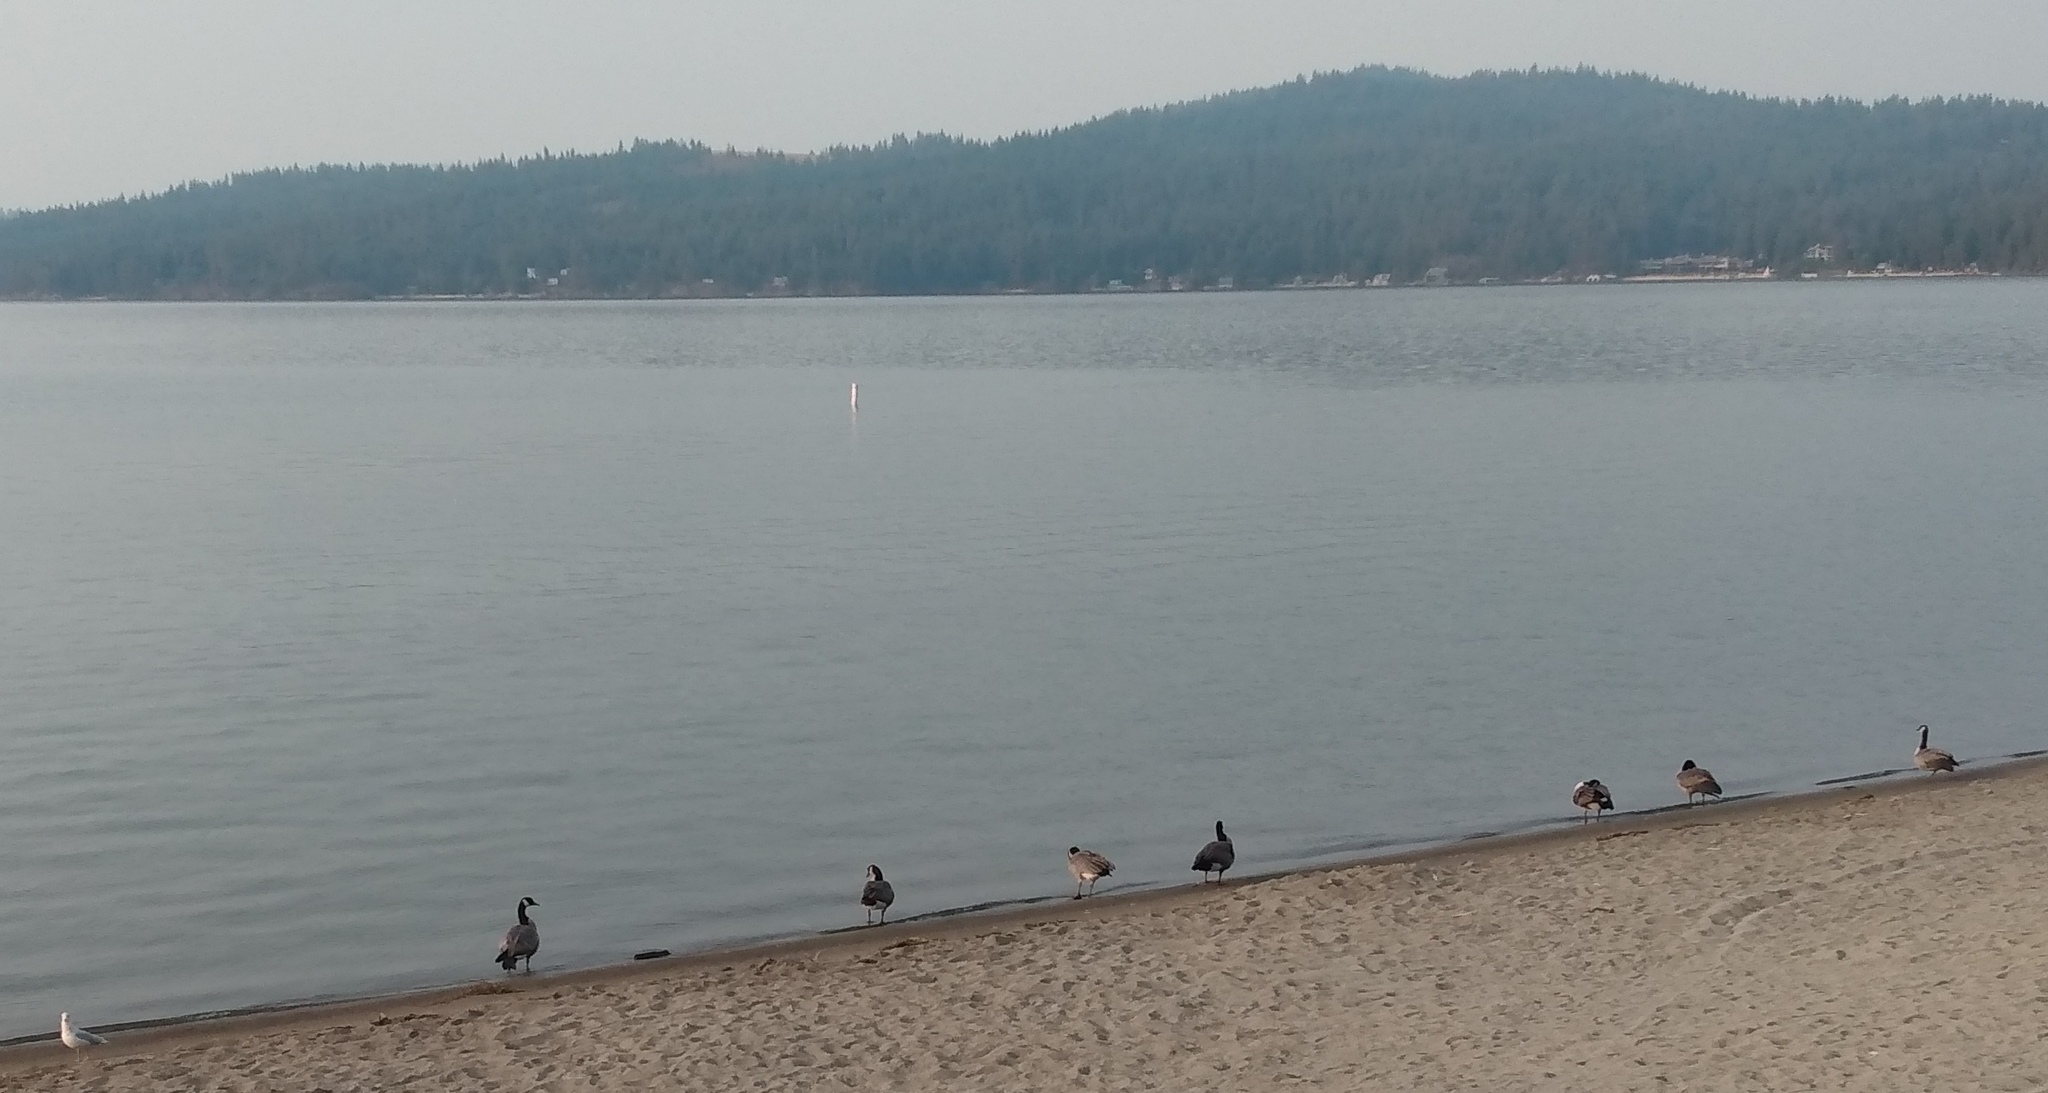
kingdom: Animalia
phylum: Chordata
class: Aves
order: Anseriformes
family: Anatidae
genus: Branta
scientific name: Branta canadensis
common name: Canada goose
